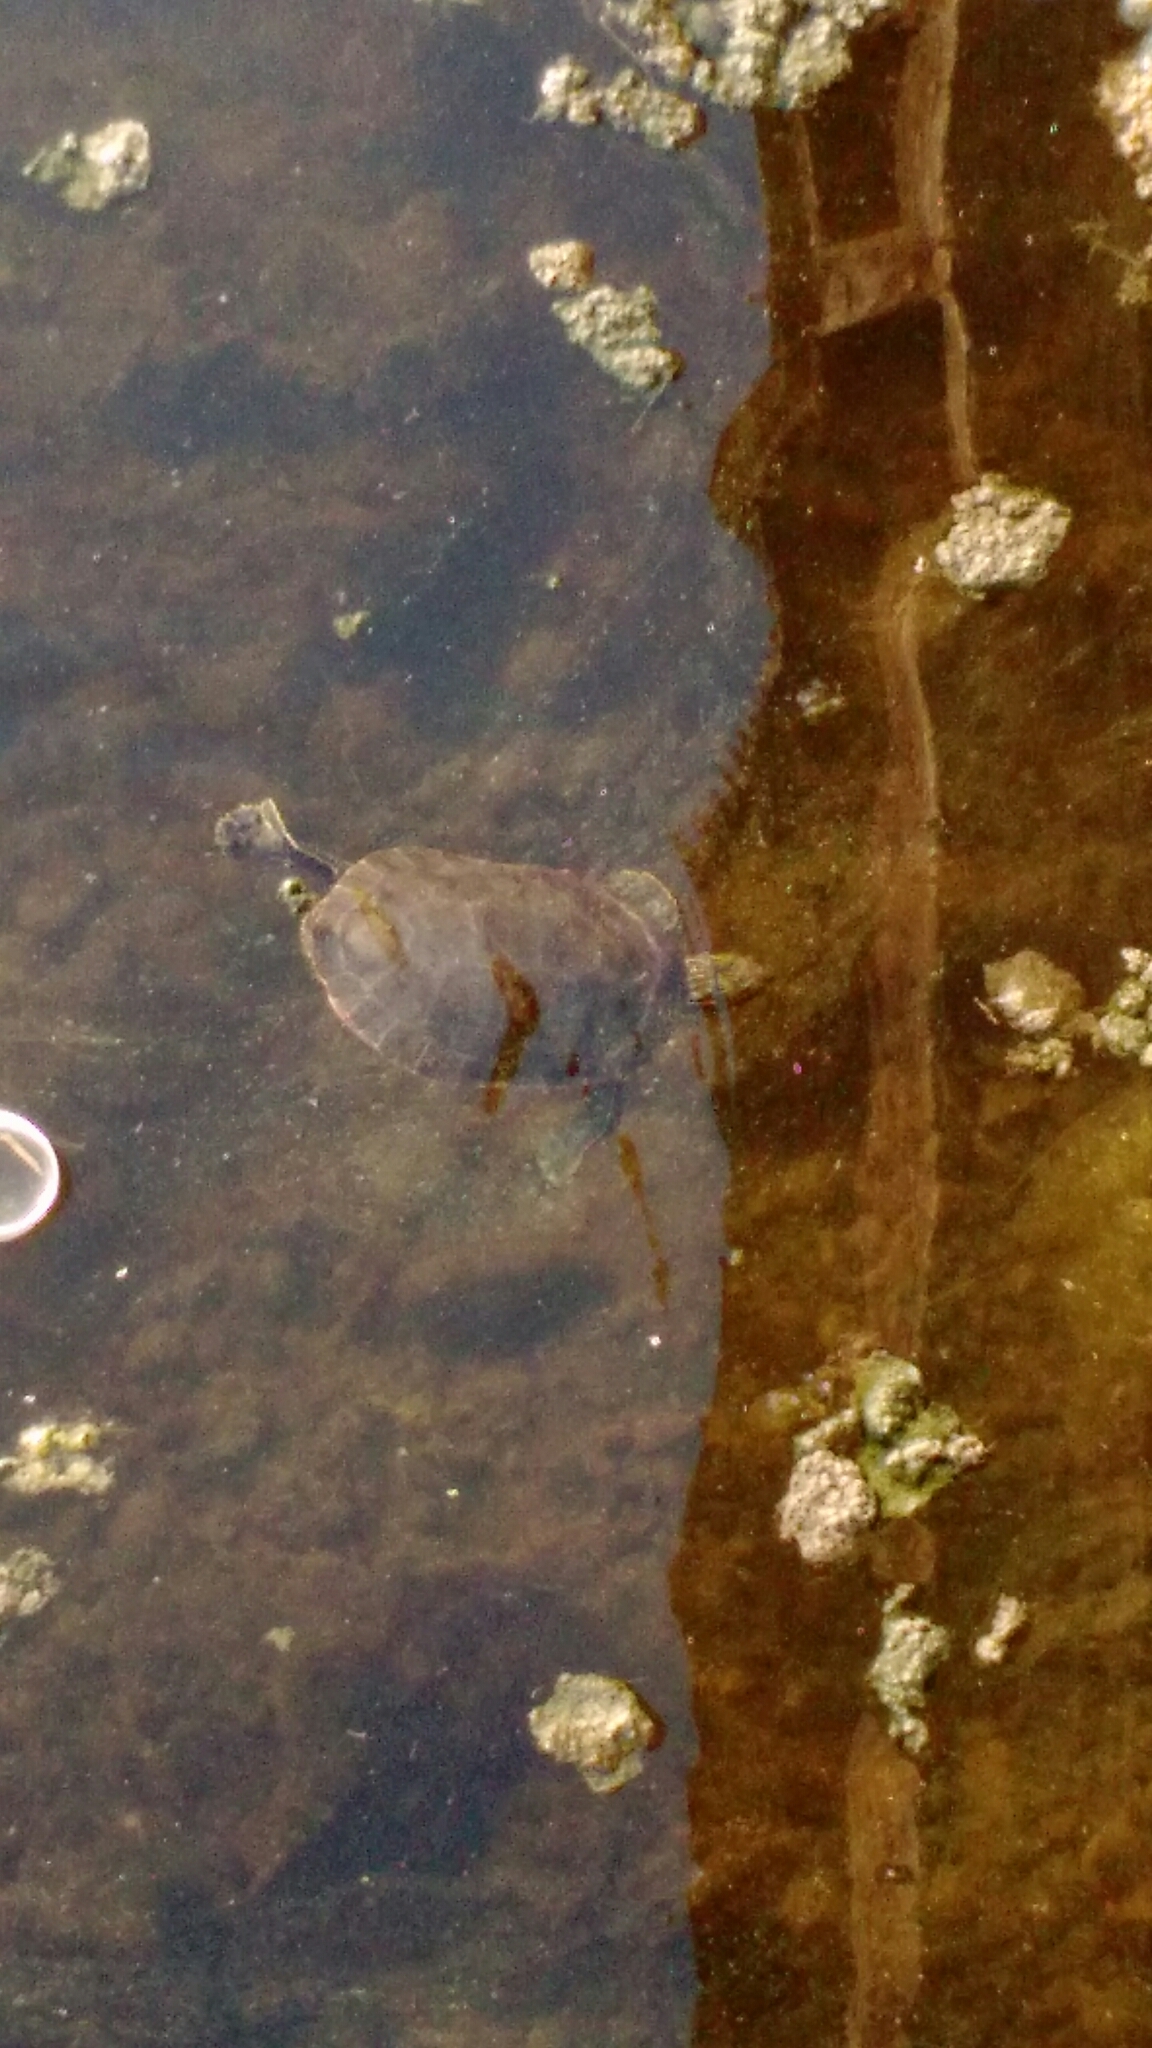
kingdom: Animalia
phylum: Chordata
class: Testudines
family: Emydidae
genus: Chrysemys
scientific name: Chrysemys picta
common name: Painted turtle
